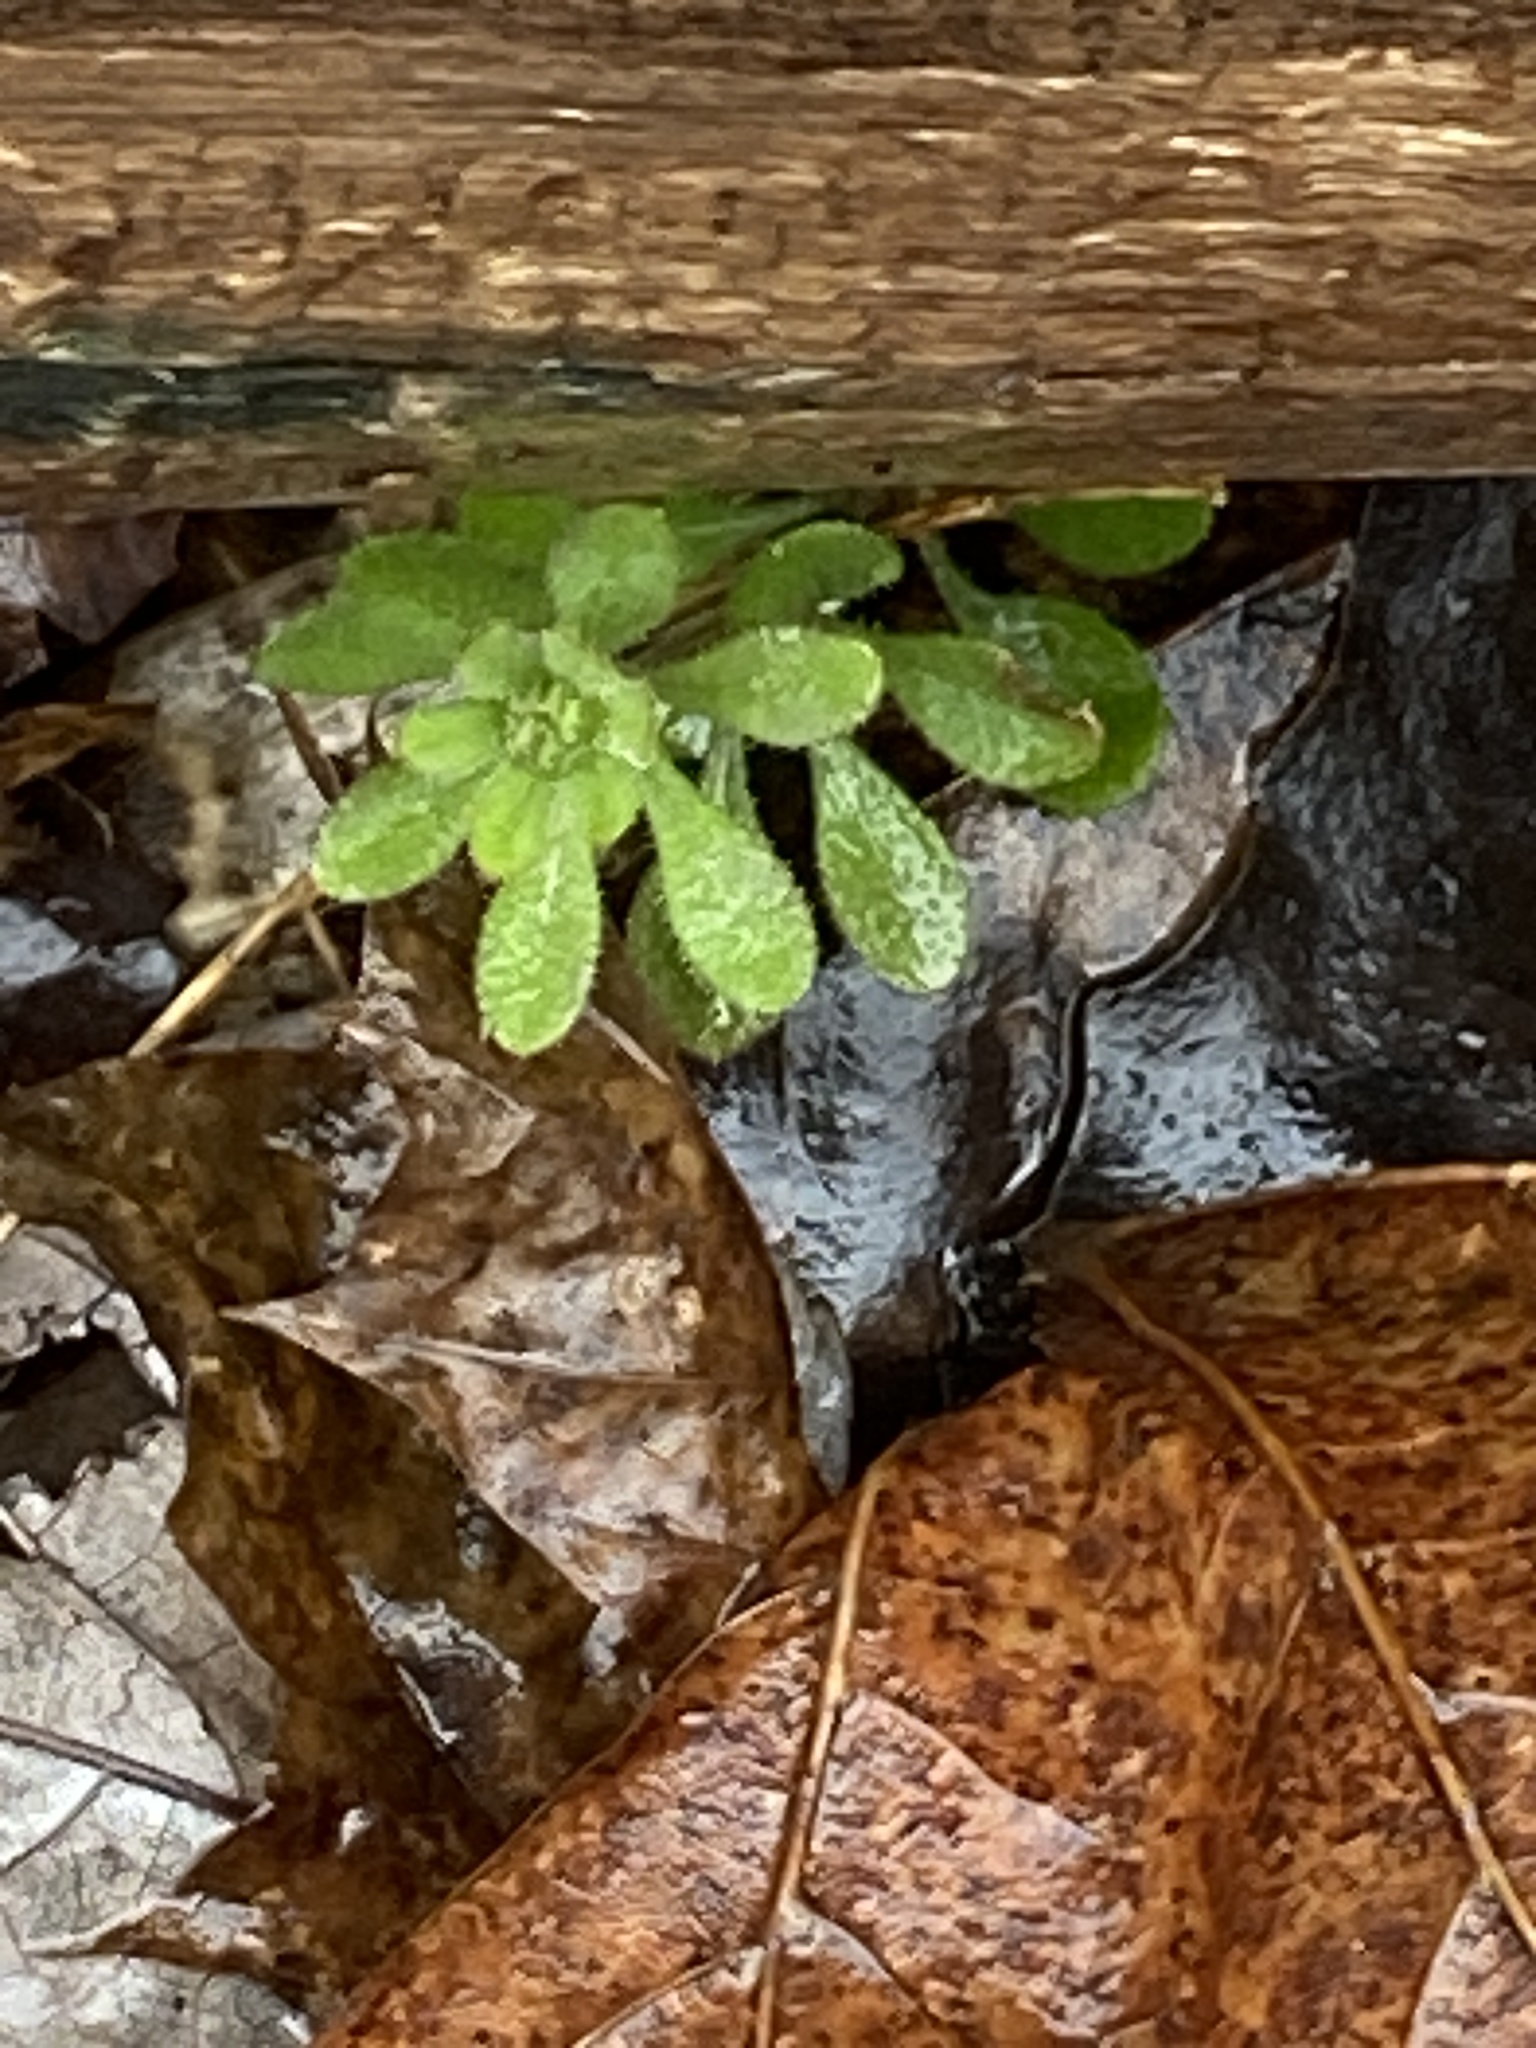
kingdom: Plantae
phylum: Tracheophyta
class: Magnoliopsida
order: Gentianales
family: Rubiaceae
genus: Galium
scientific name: Galium aparine
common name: Cleavers
